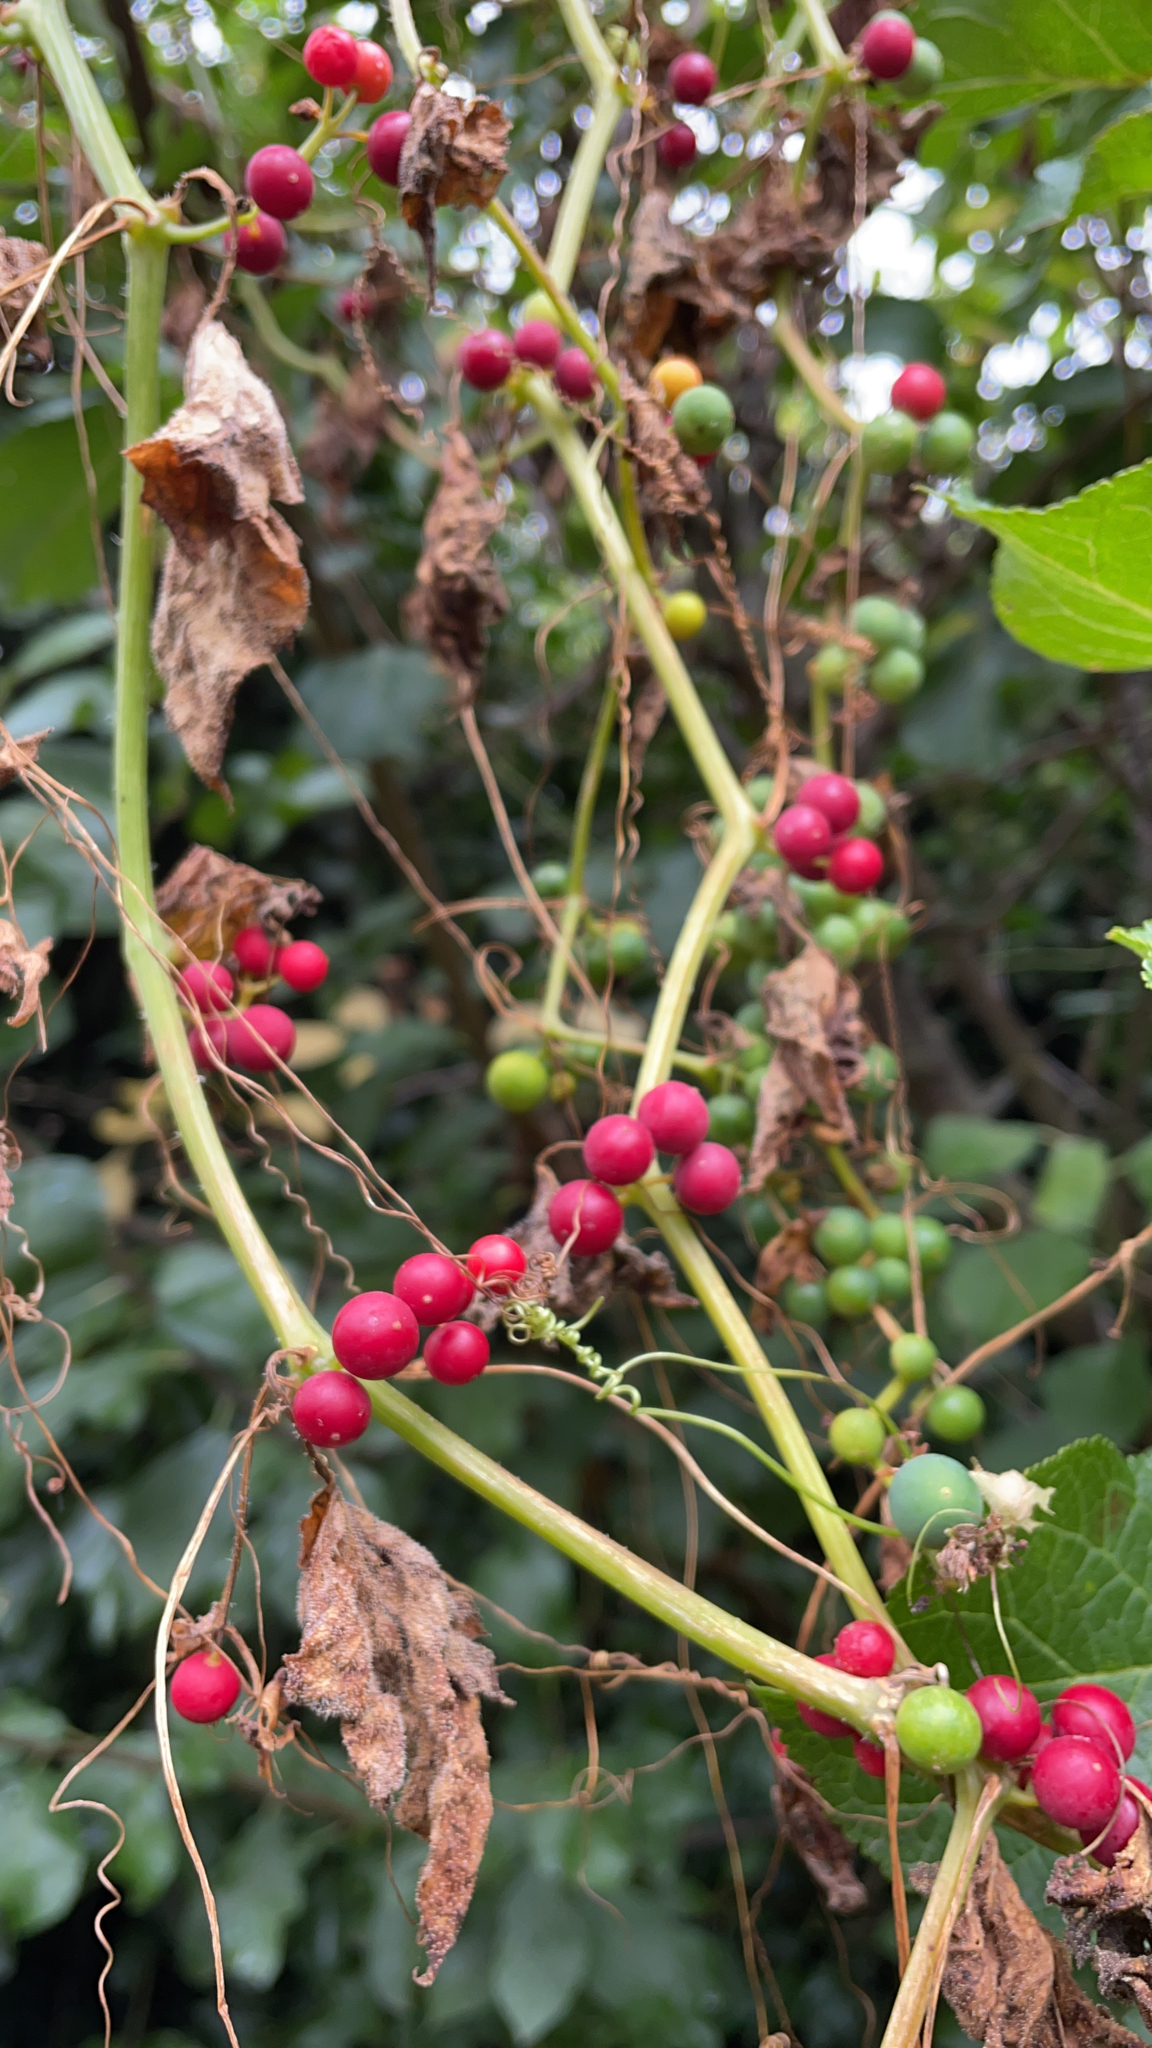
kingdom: Plantae
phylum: Tracheophyta
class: Magnoliopsida
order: Cucurbitales
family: Cucurbitaceae
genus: Bryonia
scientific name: Bryonia cretica
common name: Cretan bryony
